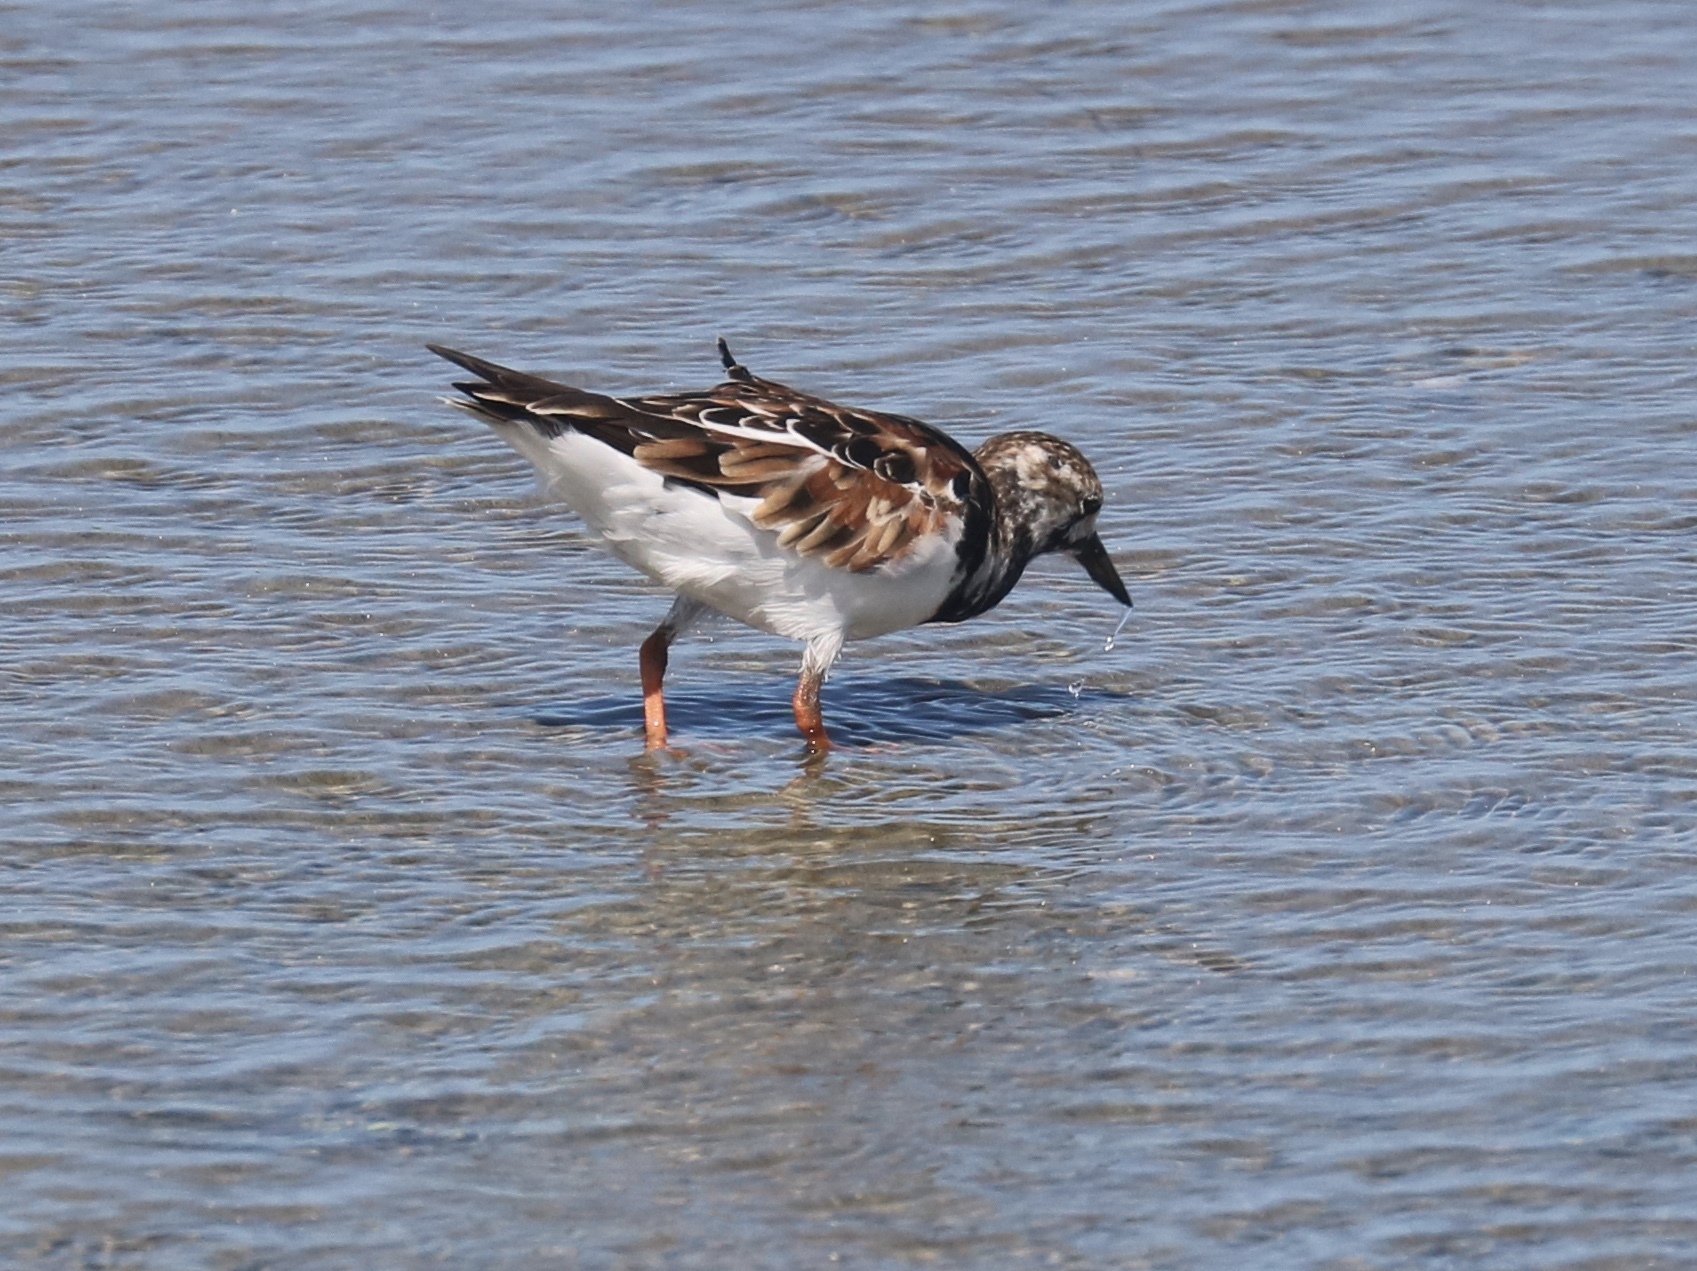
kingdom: Animalia
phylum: Chordata
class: Aves
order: Charadriiformes
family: Scolopacidae
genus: Arenaria
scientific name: Arenaria interpres
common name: Ruddy turnstone
